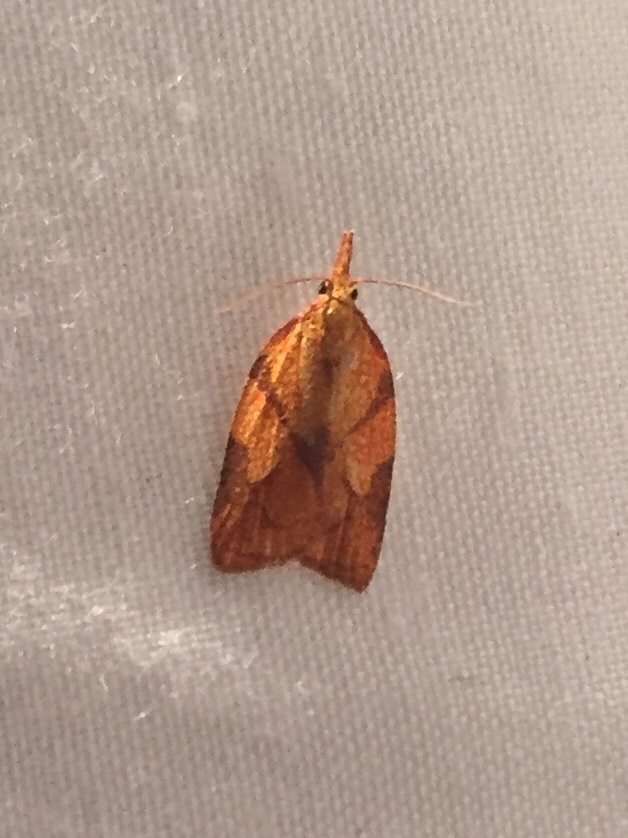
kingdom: Animalia
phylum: Arthropoda
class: Insecta
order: Lepidoptera
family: Tortricidae
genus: Cenopis
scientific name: Cenopis reticulatana
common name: Reticulated fruitworm moth
